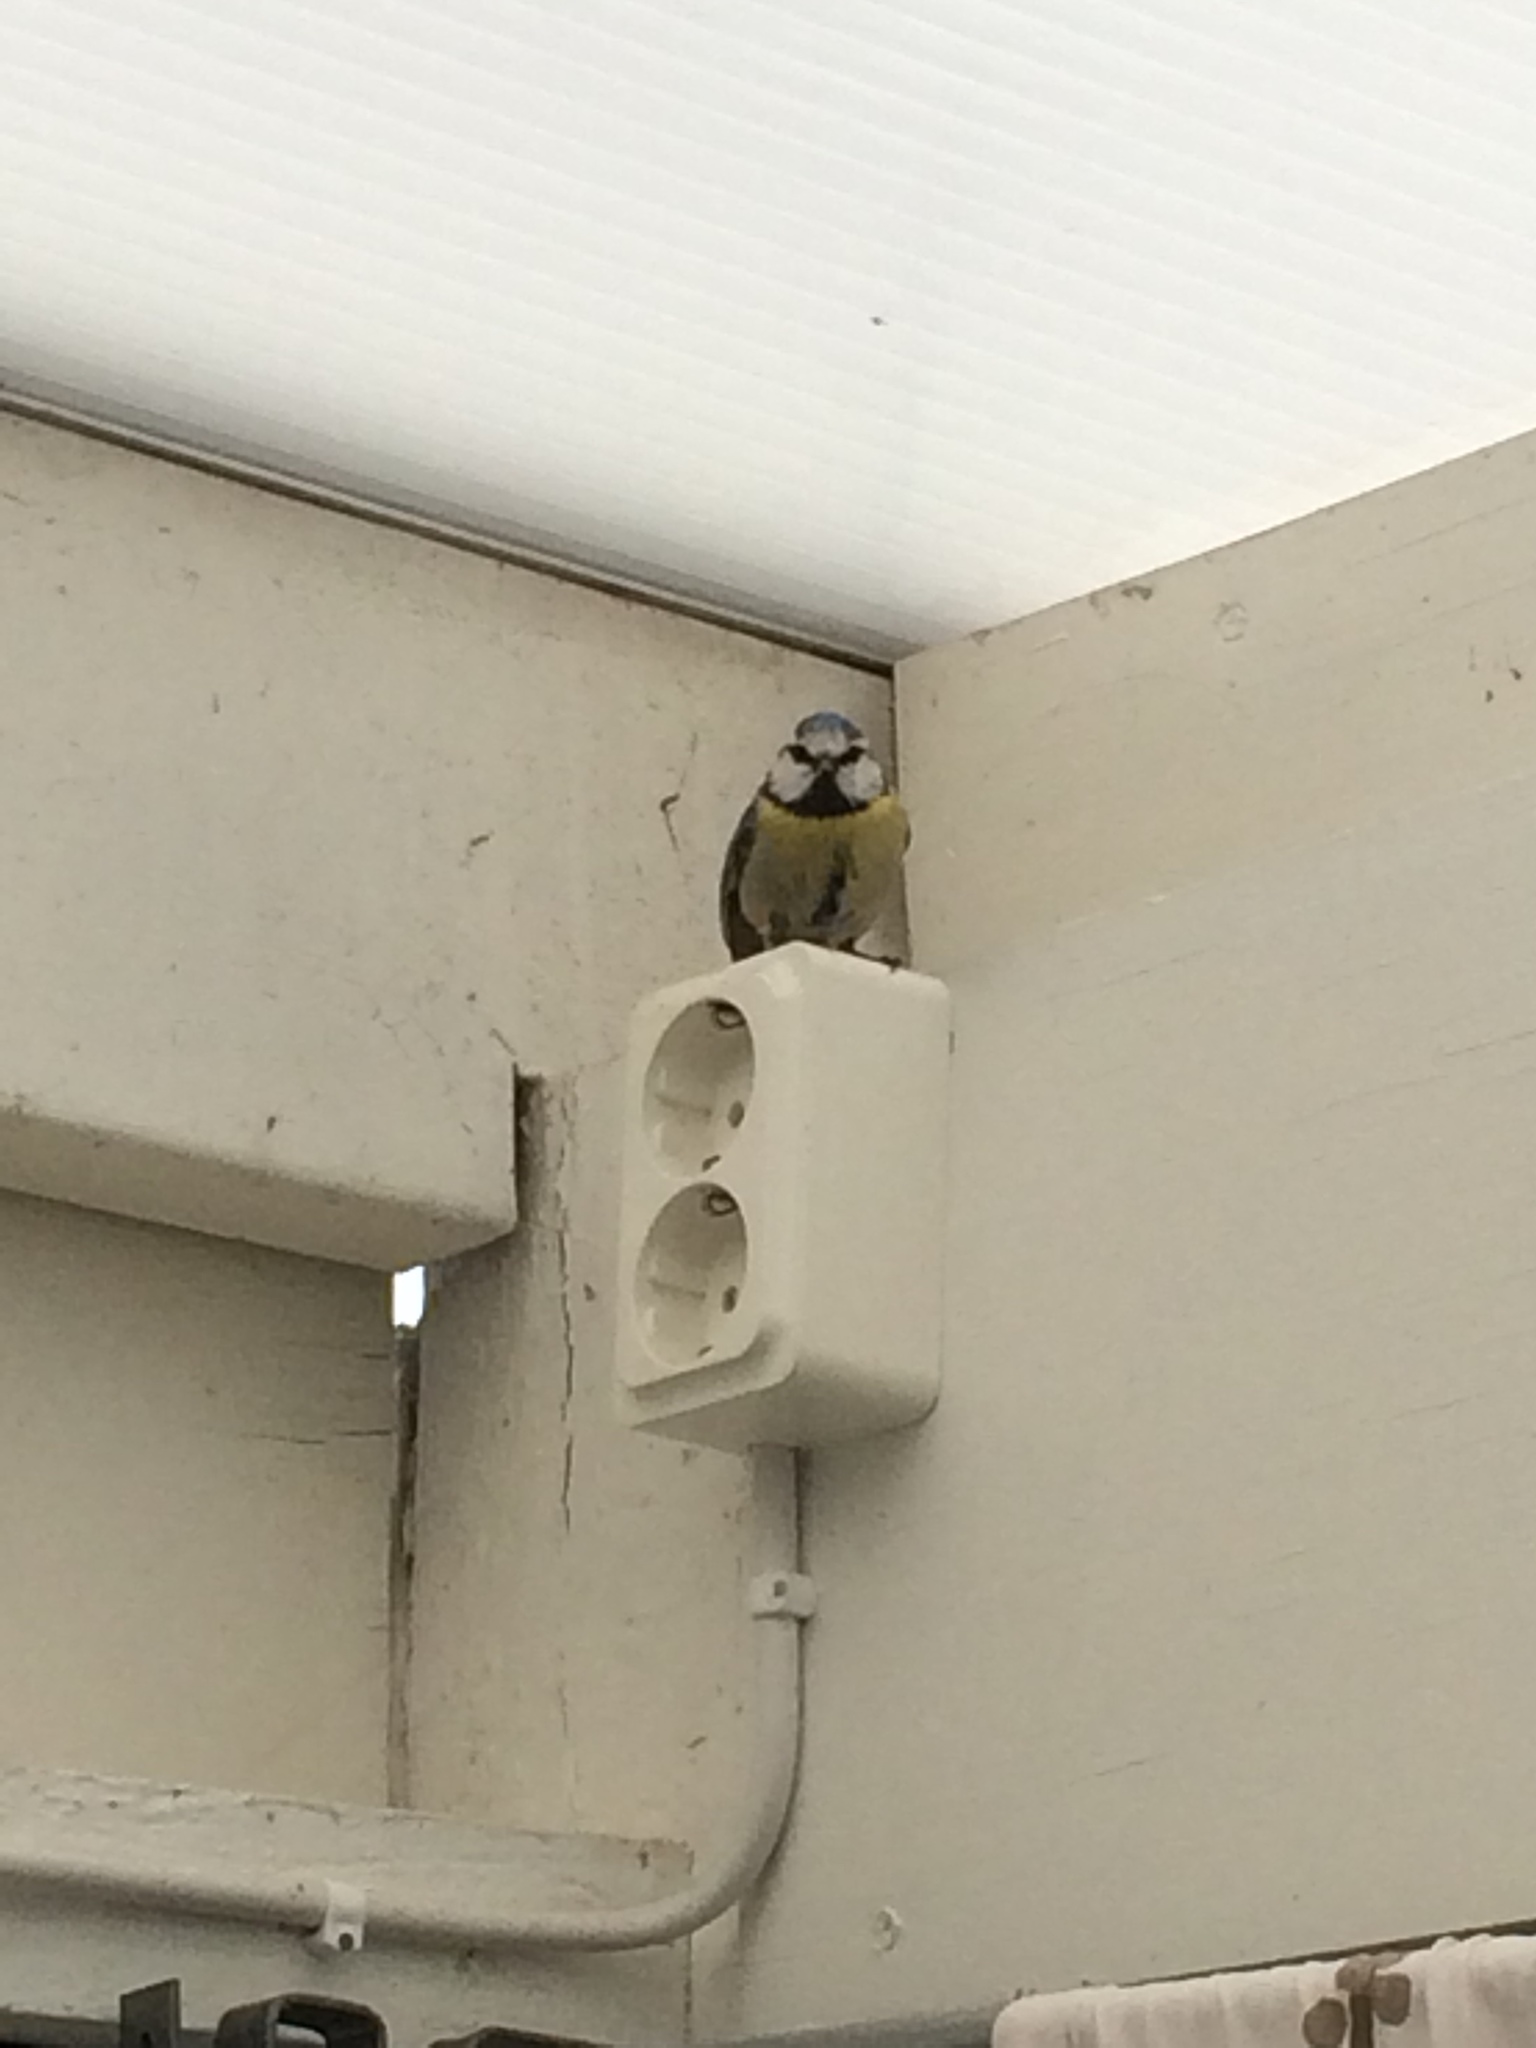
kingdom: Animalia
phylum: Chordata
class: Aves
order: Passeriformes
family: Paridae
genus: Cyanistes
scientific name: Cyanistes caeruleus
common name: Eurasian blue tit
